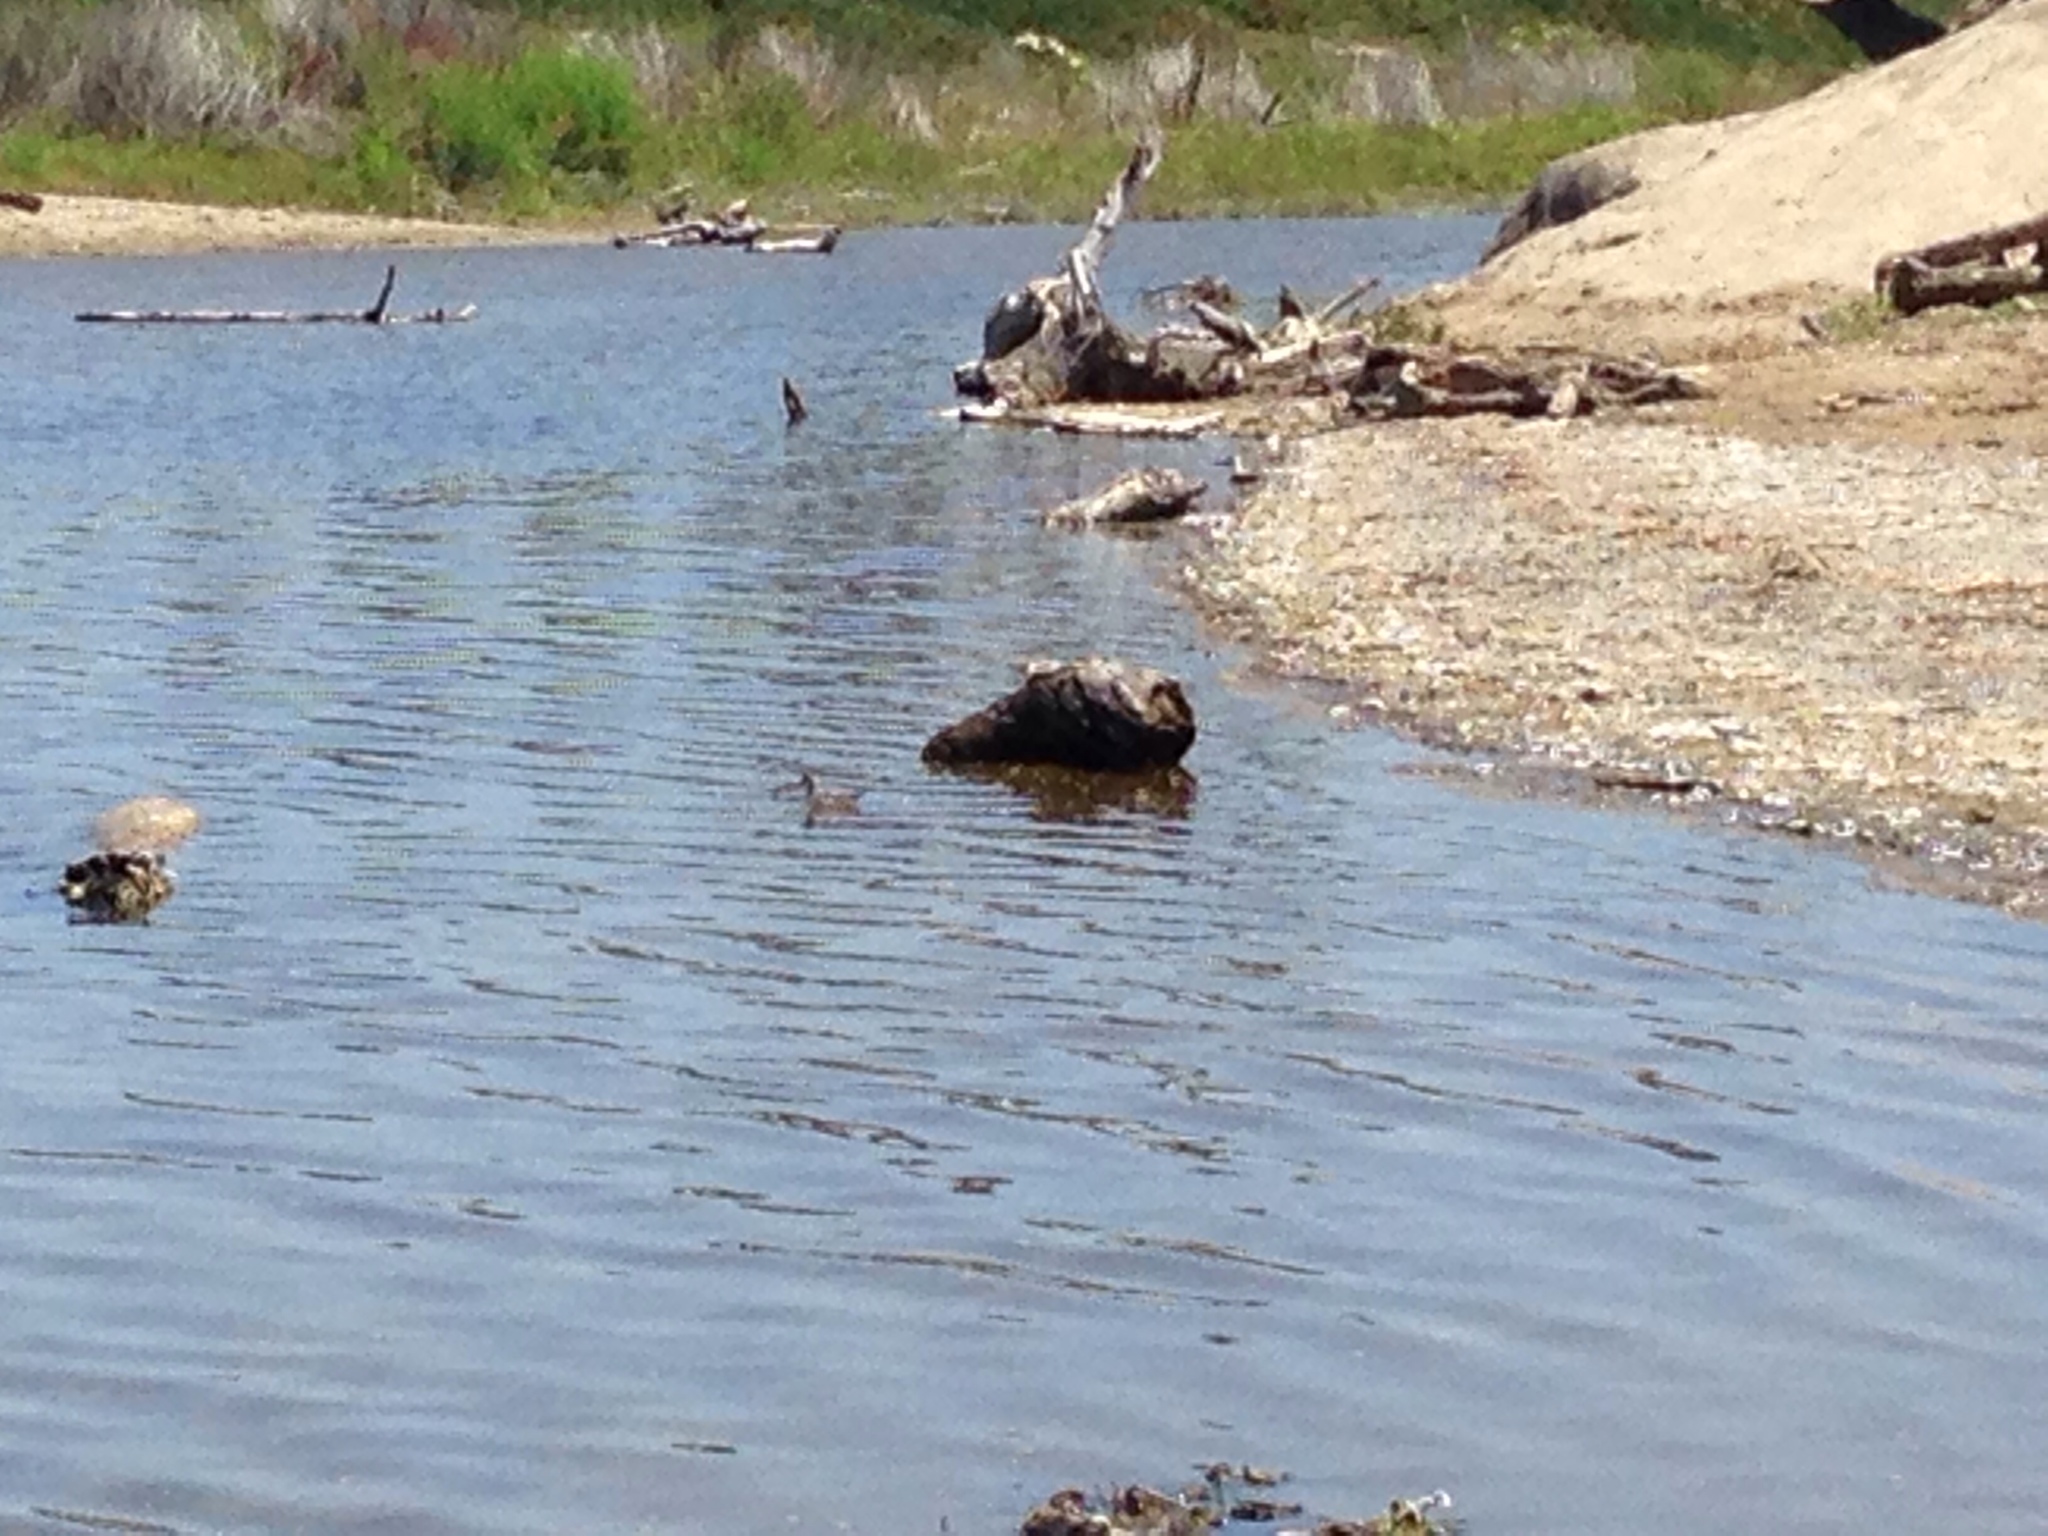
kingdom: Animalia
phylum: Chordata
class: Aves
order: Charadriiformes
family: Scolopacidae
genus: Phalaropus
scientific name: Phalaropus
